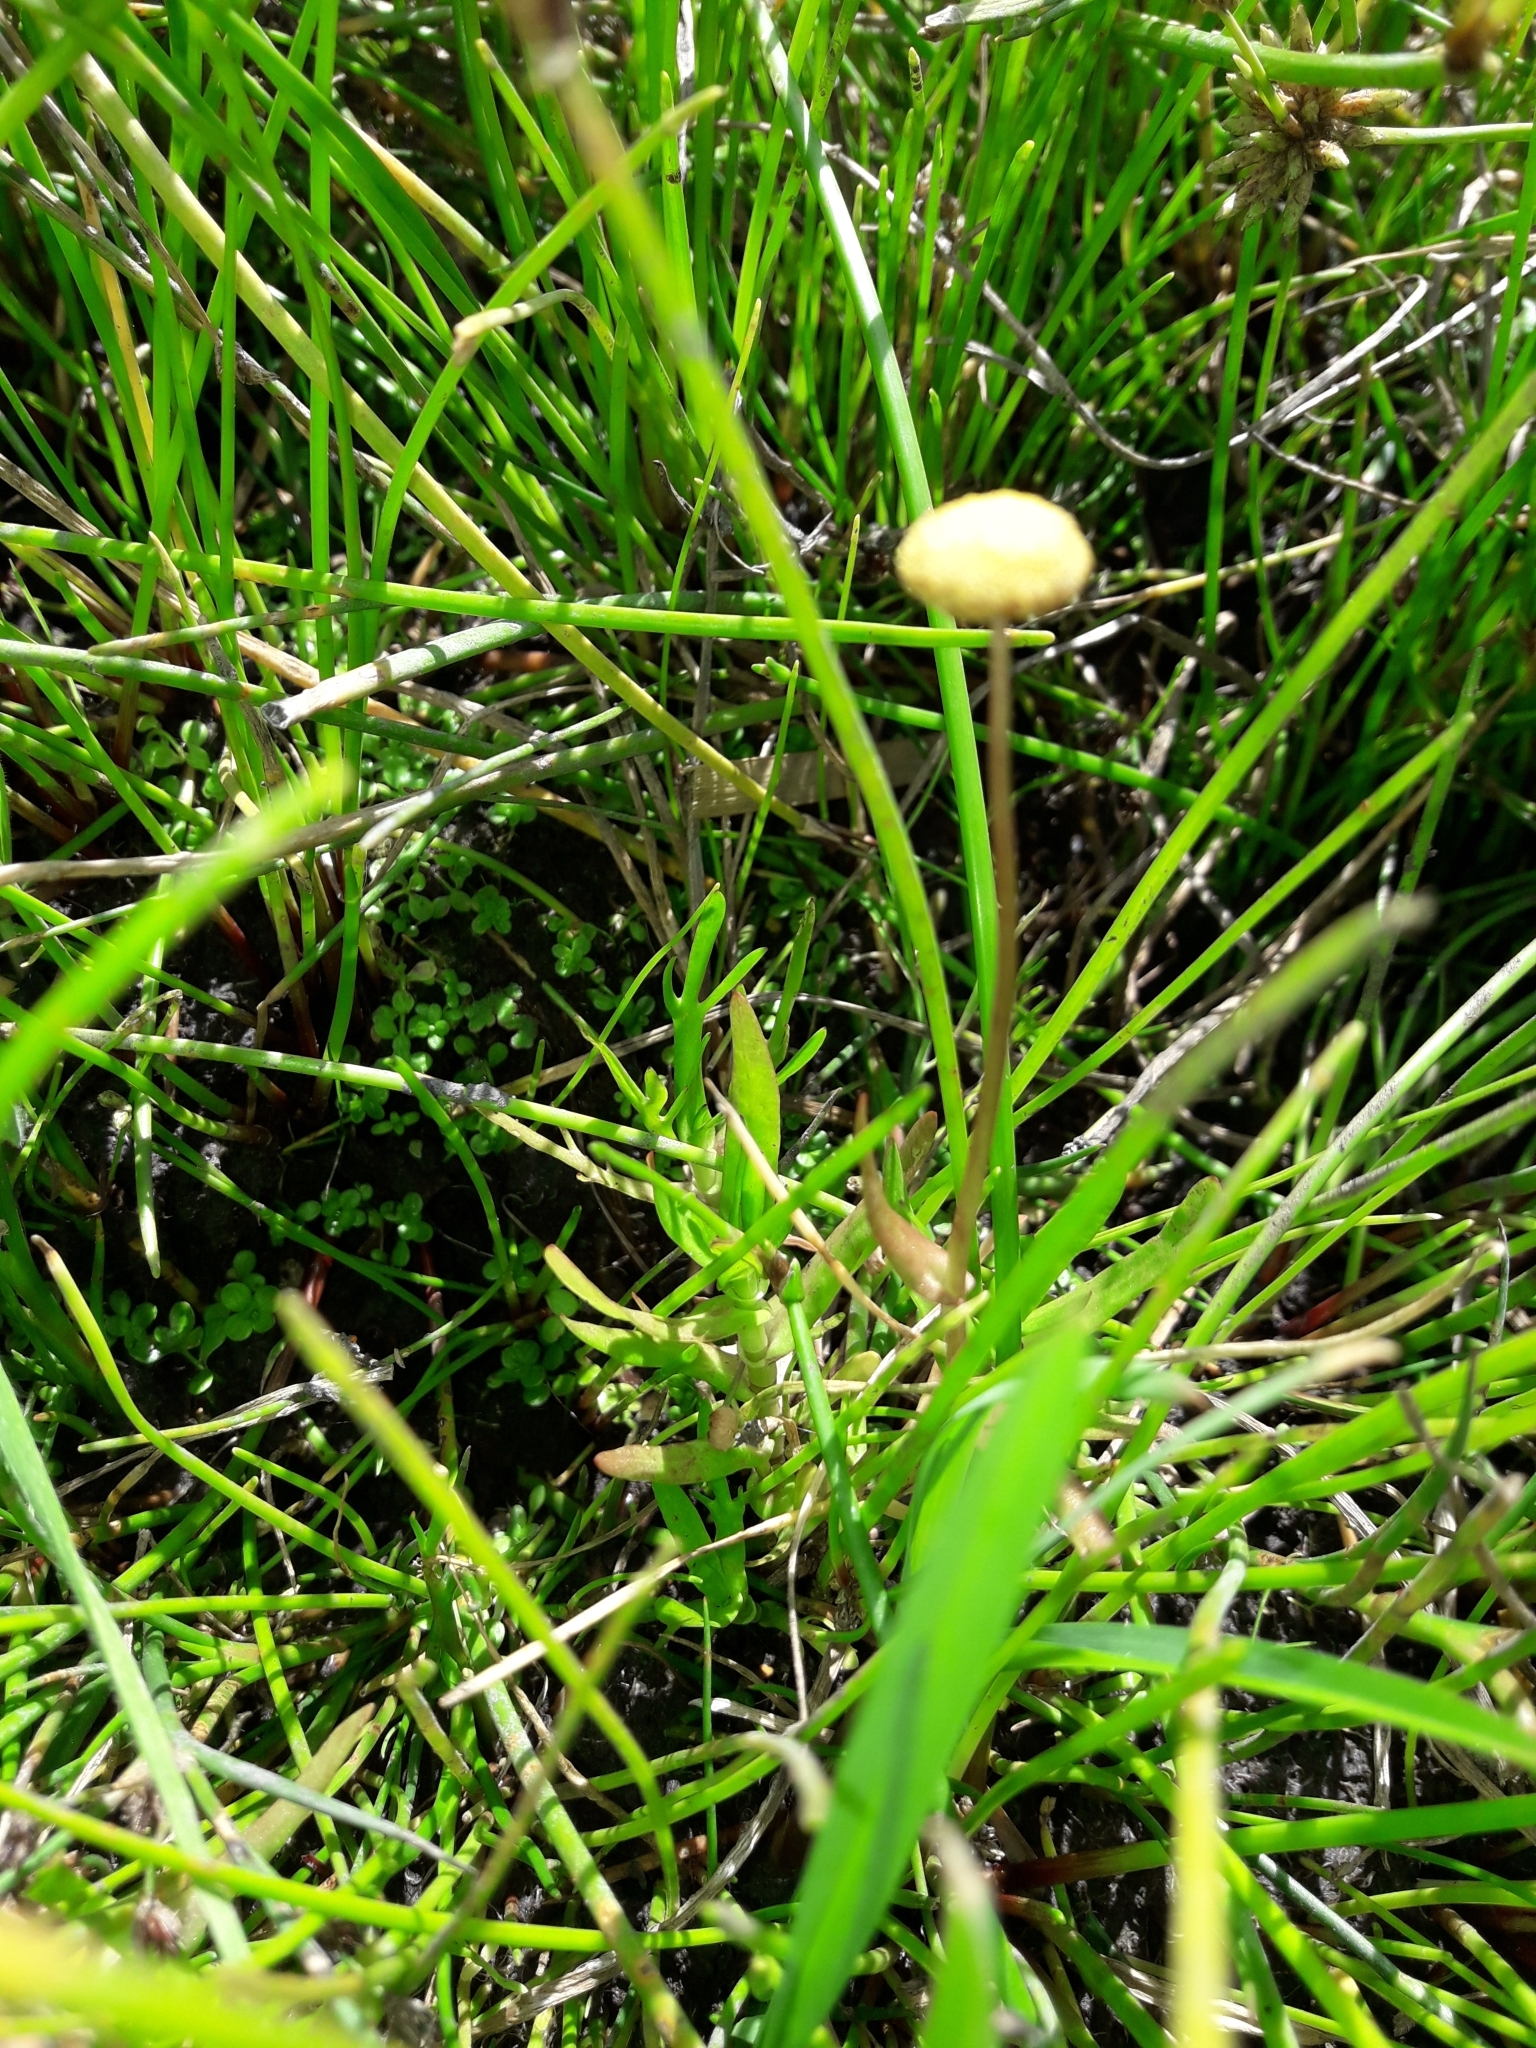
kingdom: Plantae
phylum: Tracheophyta
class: Magnoliopsida
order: Asterales
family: Asteraceae
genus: Cotula
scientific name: Cotula coronopifolia
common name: Buttonweed
